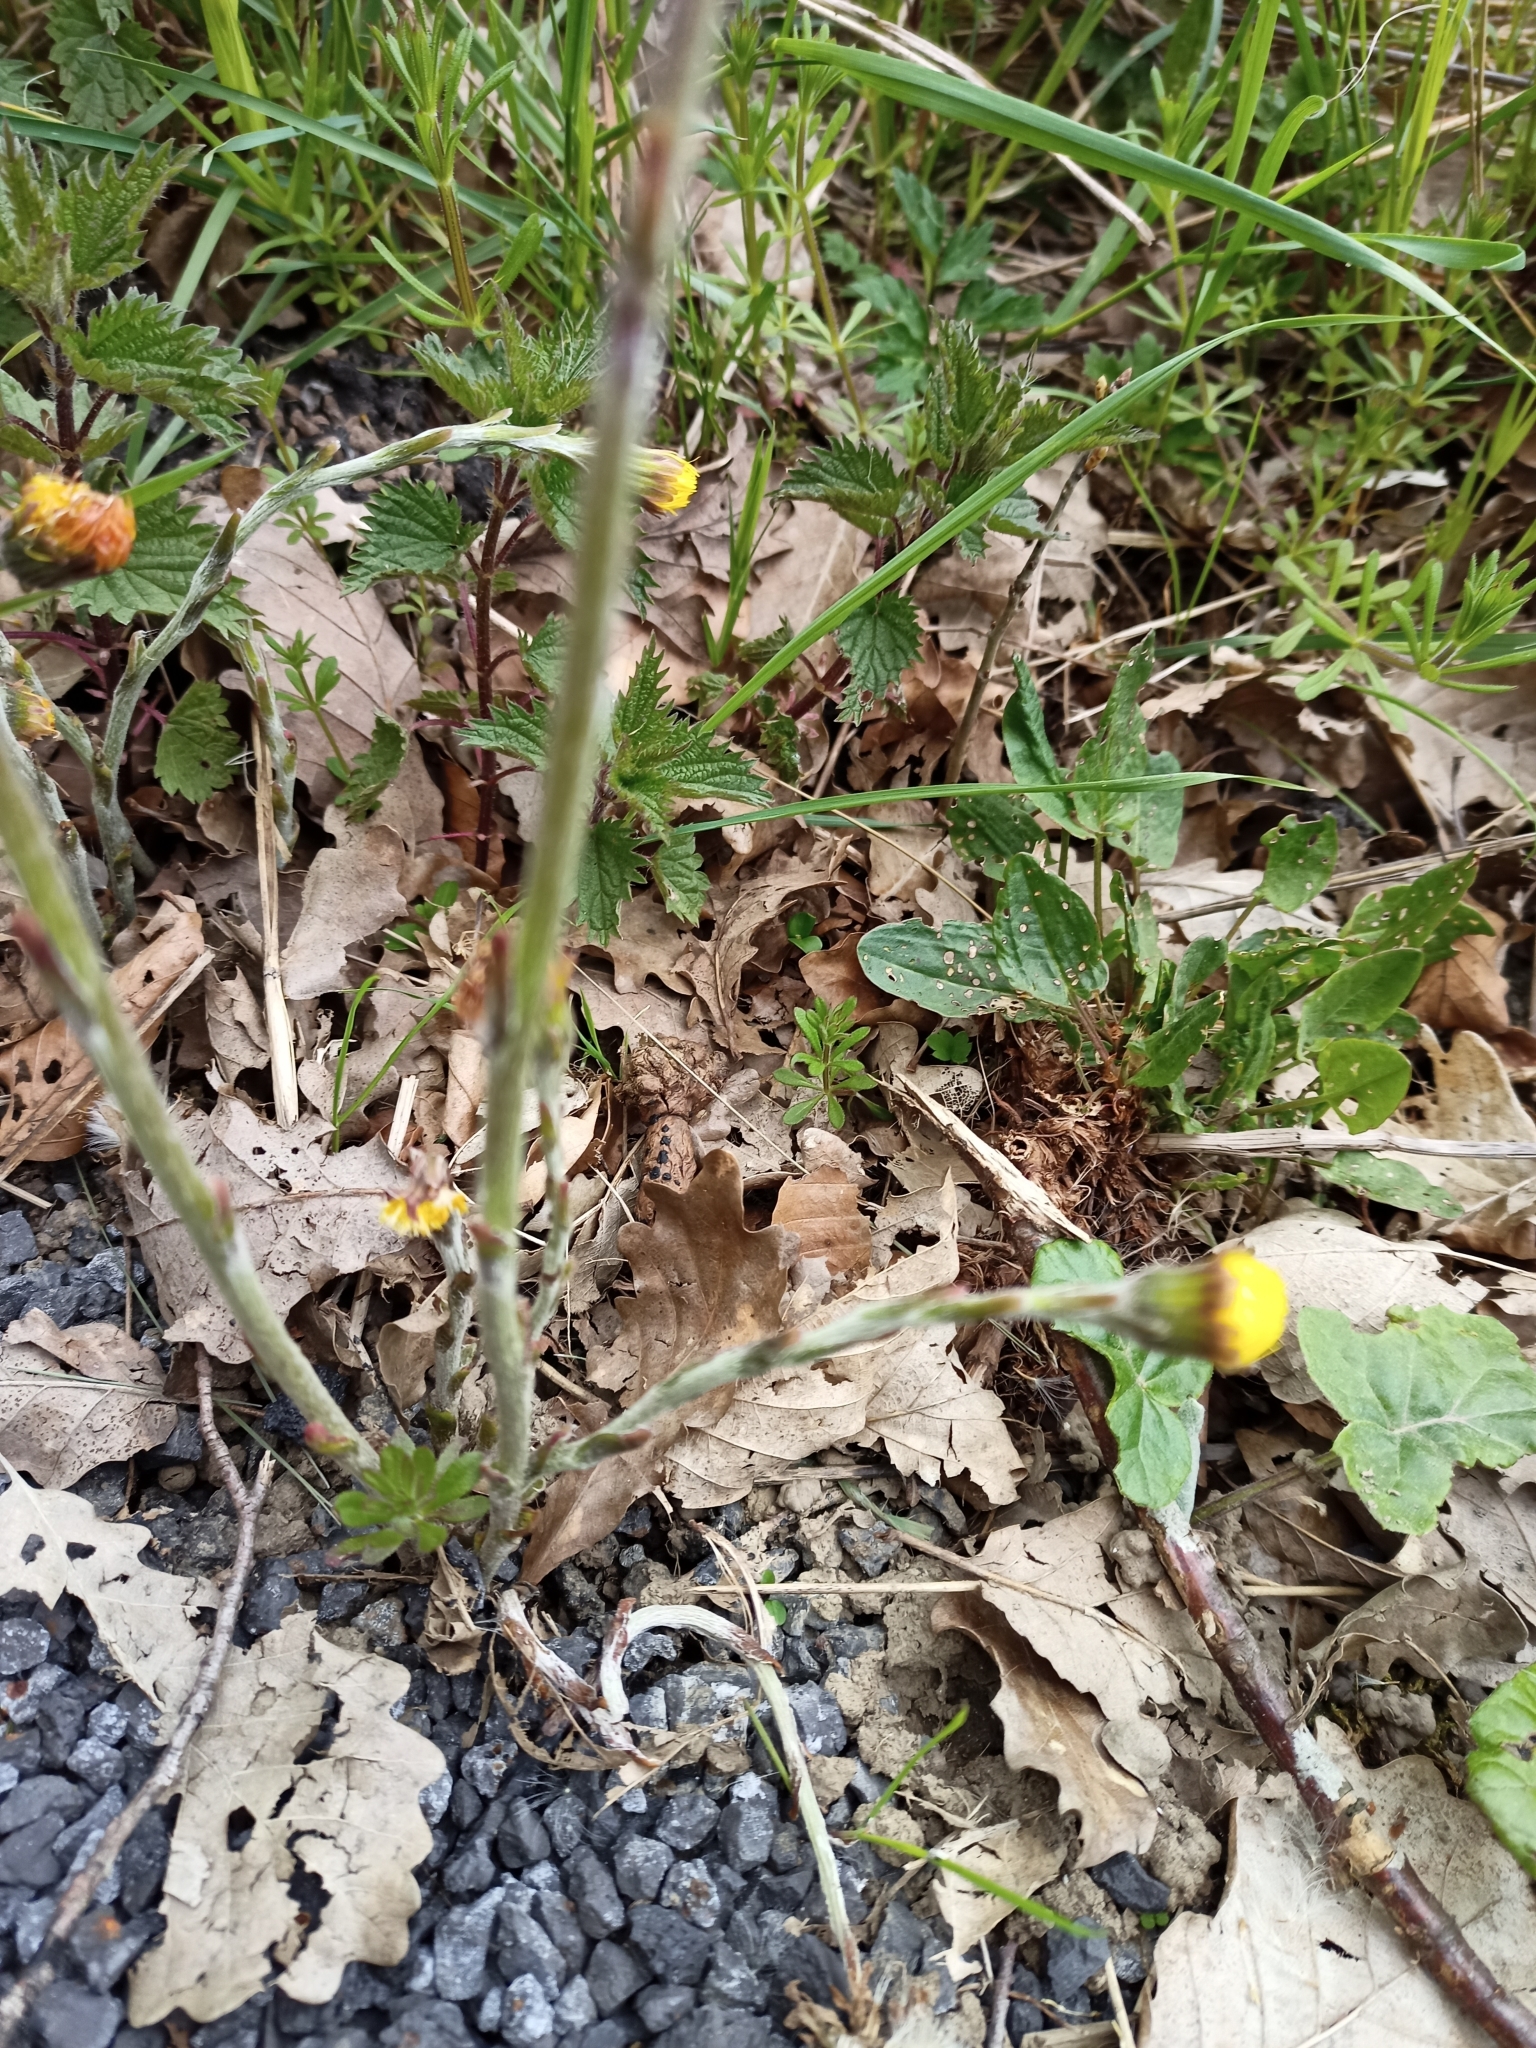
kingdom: Plantae
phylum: Tracheophyta
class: Magnoliopsida
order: Asterales
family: Asteraceae
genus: Tussilago
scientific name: Tussilago farfara
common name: Coltsfoot
